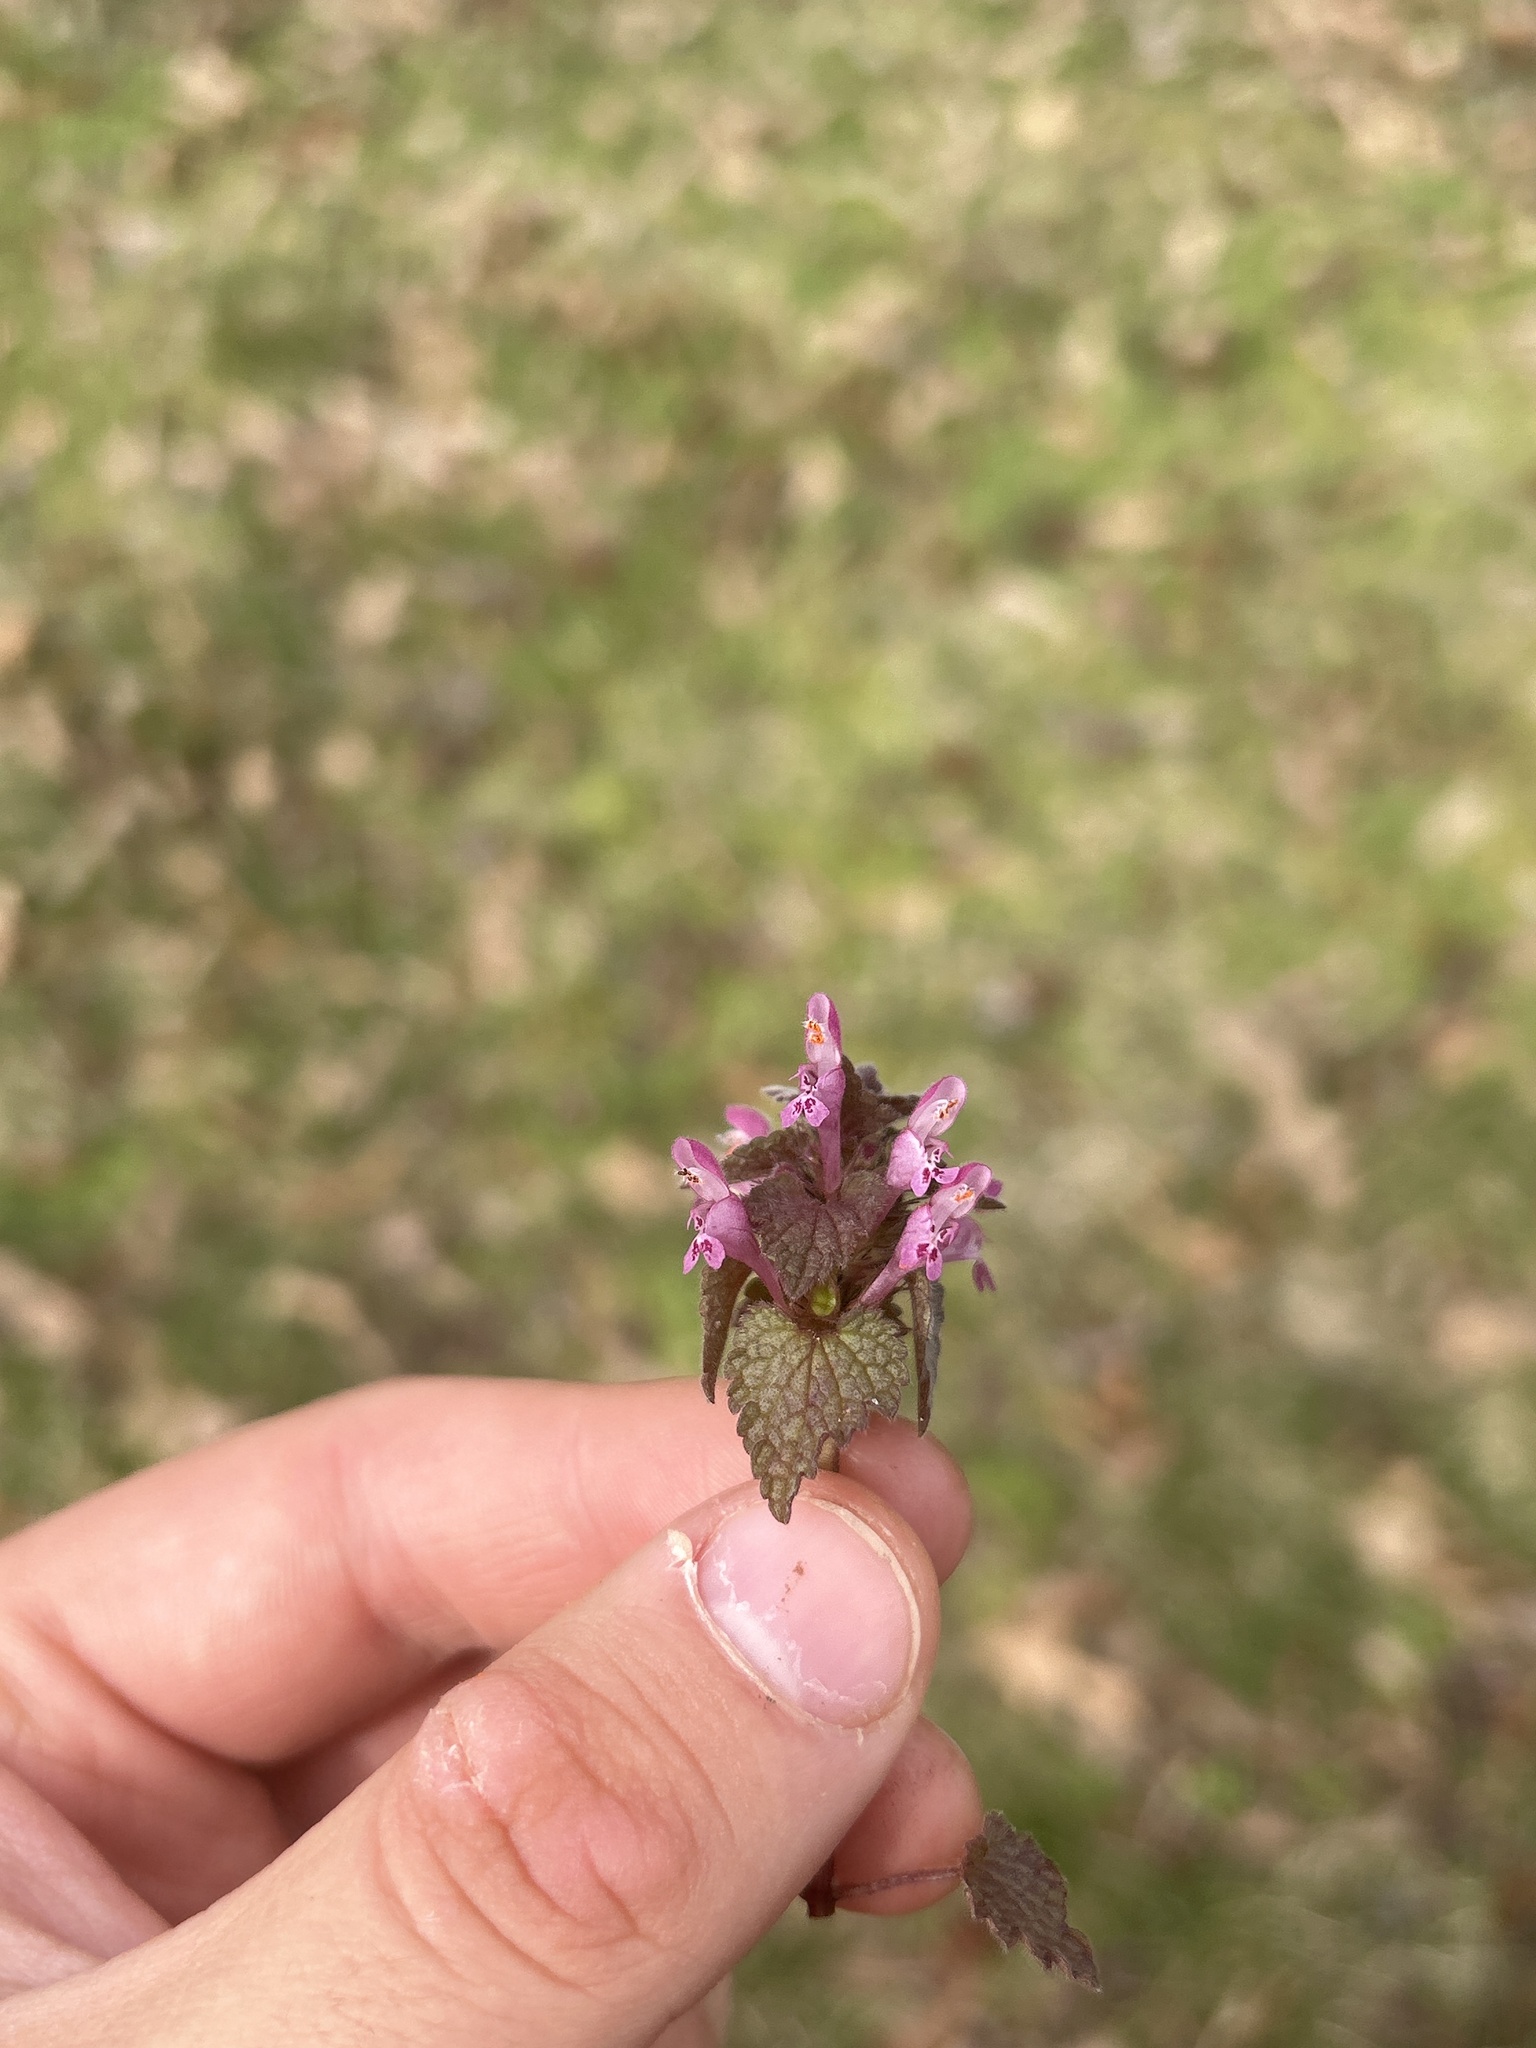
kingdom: Plantae
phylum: Tracheophyta
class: Magnoliopsida
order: Lamiales
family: Lamiaceae
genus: Lamium
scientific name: Lamium purpureum
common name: Red dead-nettle
